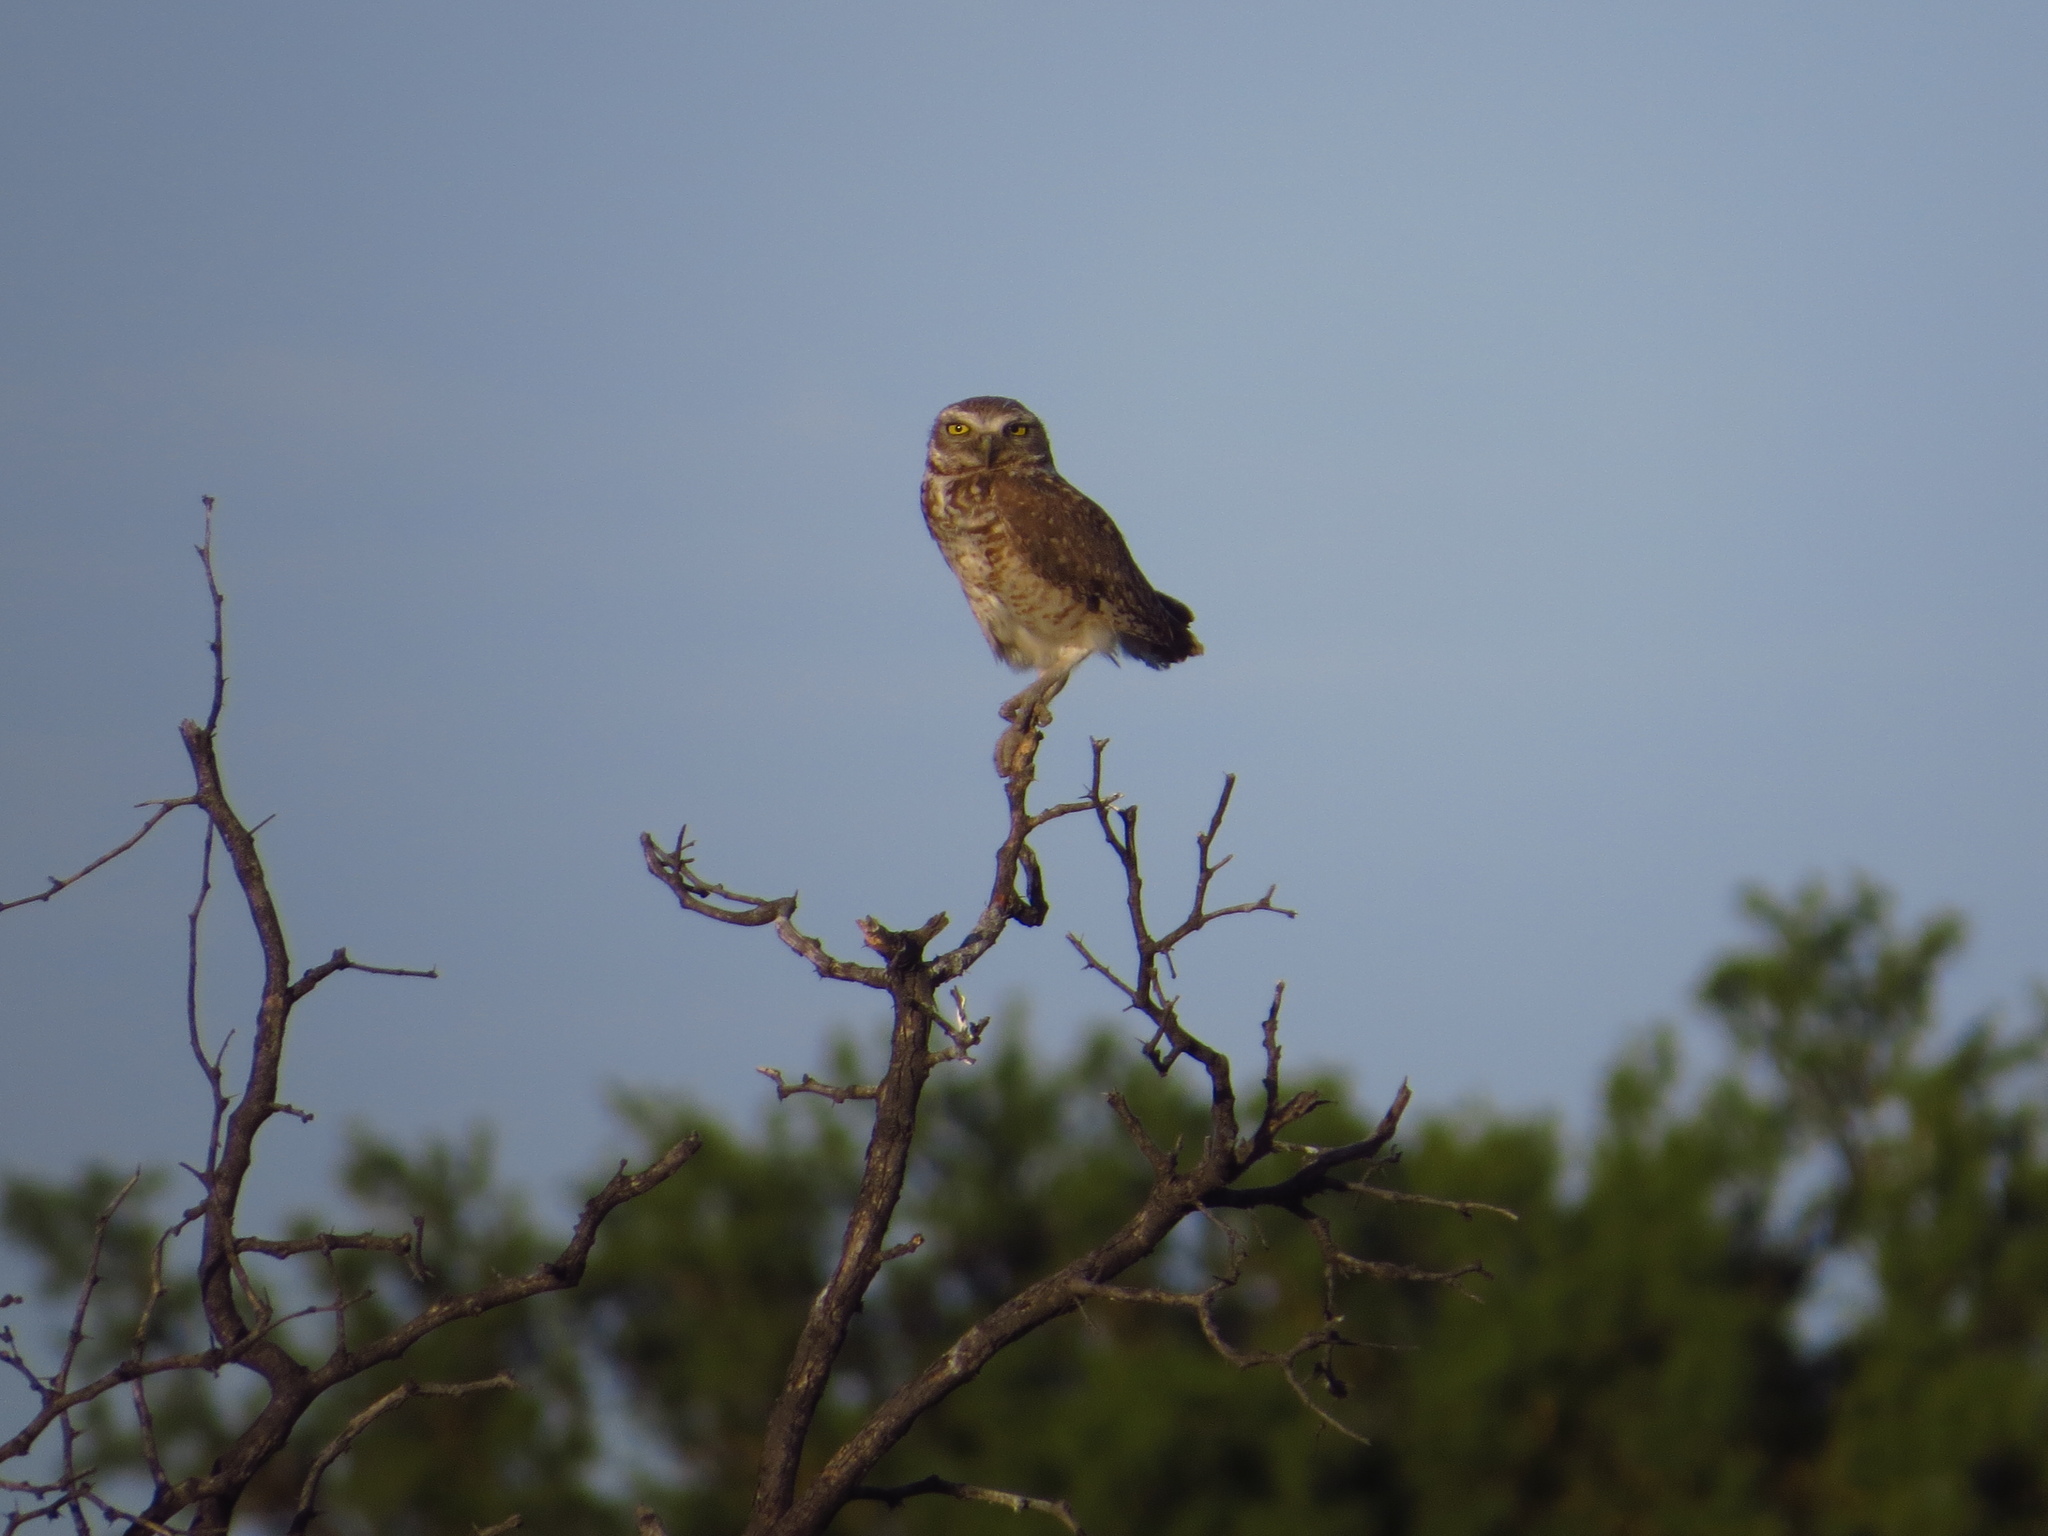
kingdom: Animalia
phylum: Chordata
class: Aves
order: Strigiformes
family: Strigidae
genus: Athene
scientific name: Athene cunicularia
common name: Burrowing owl
